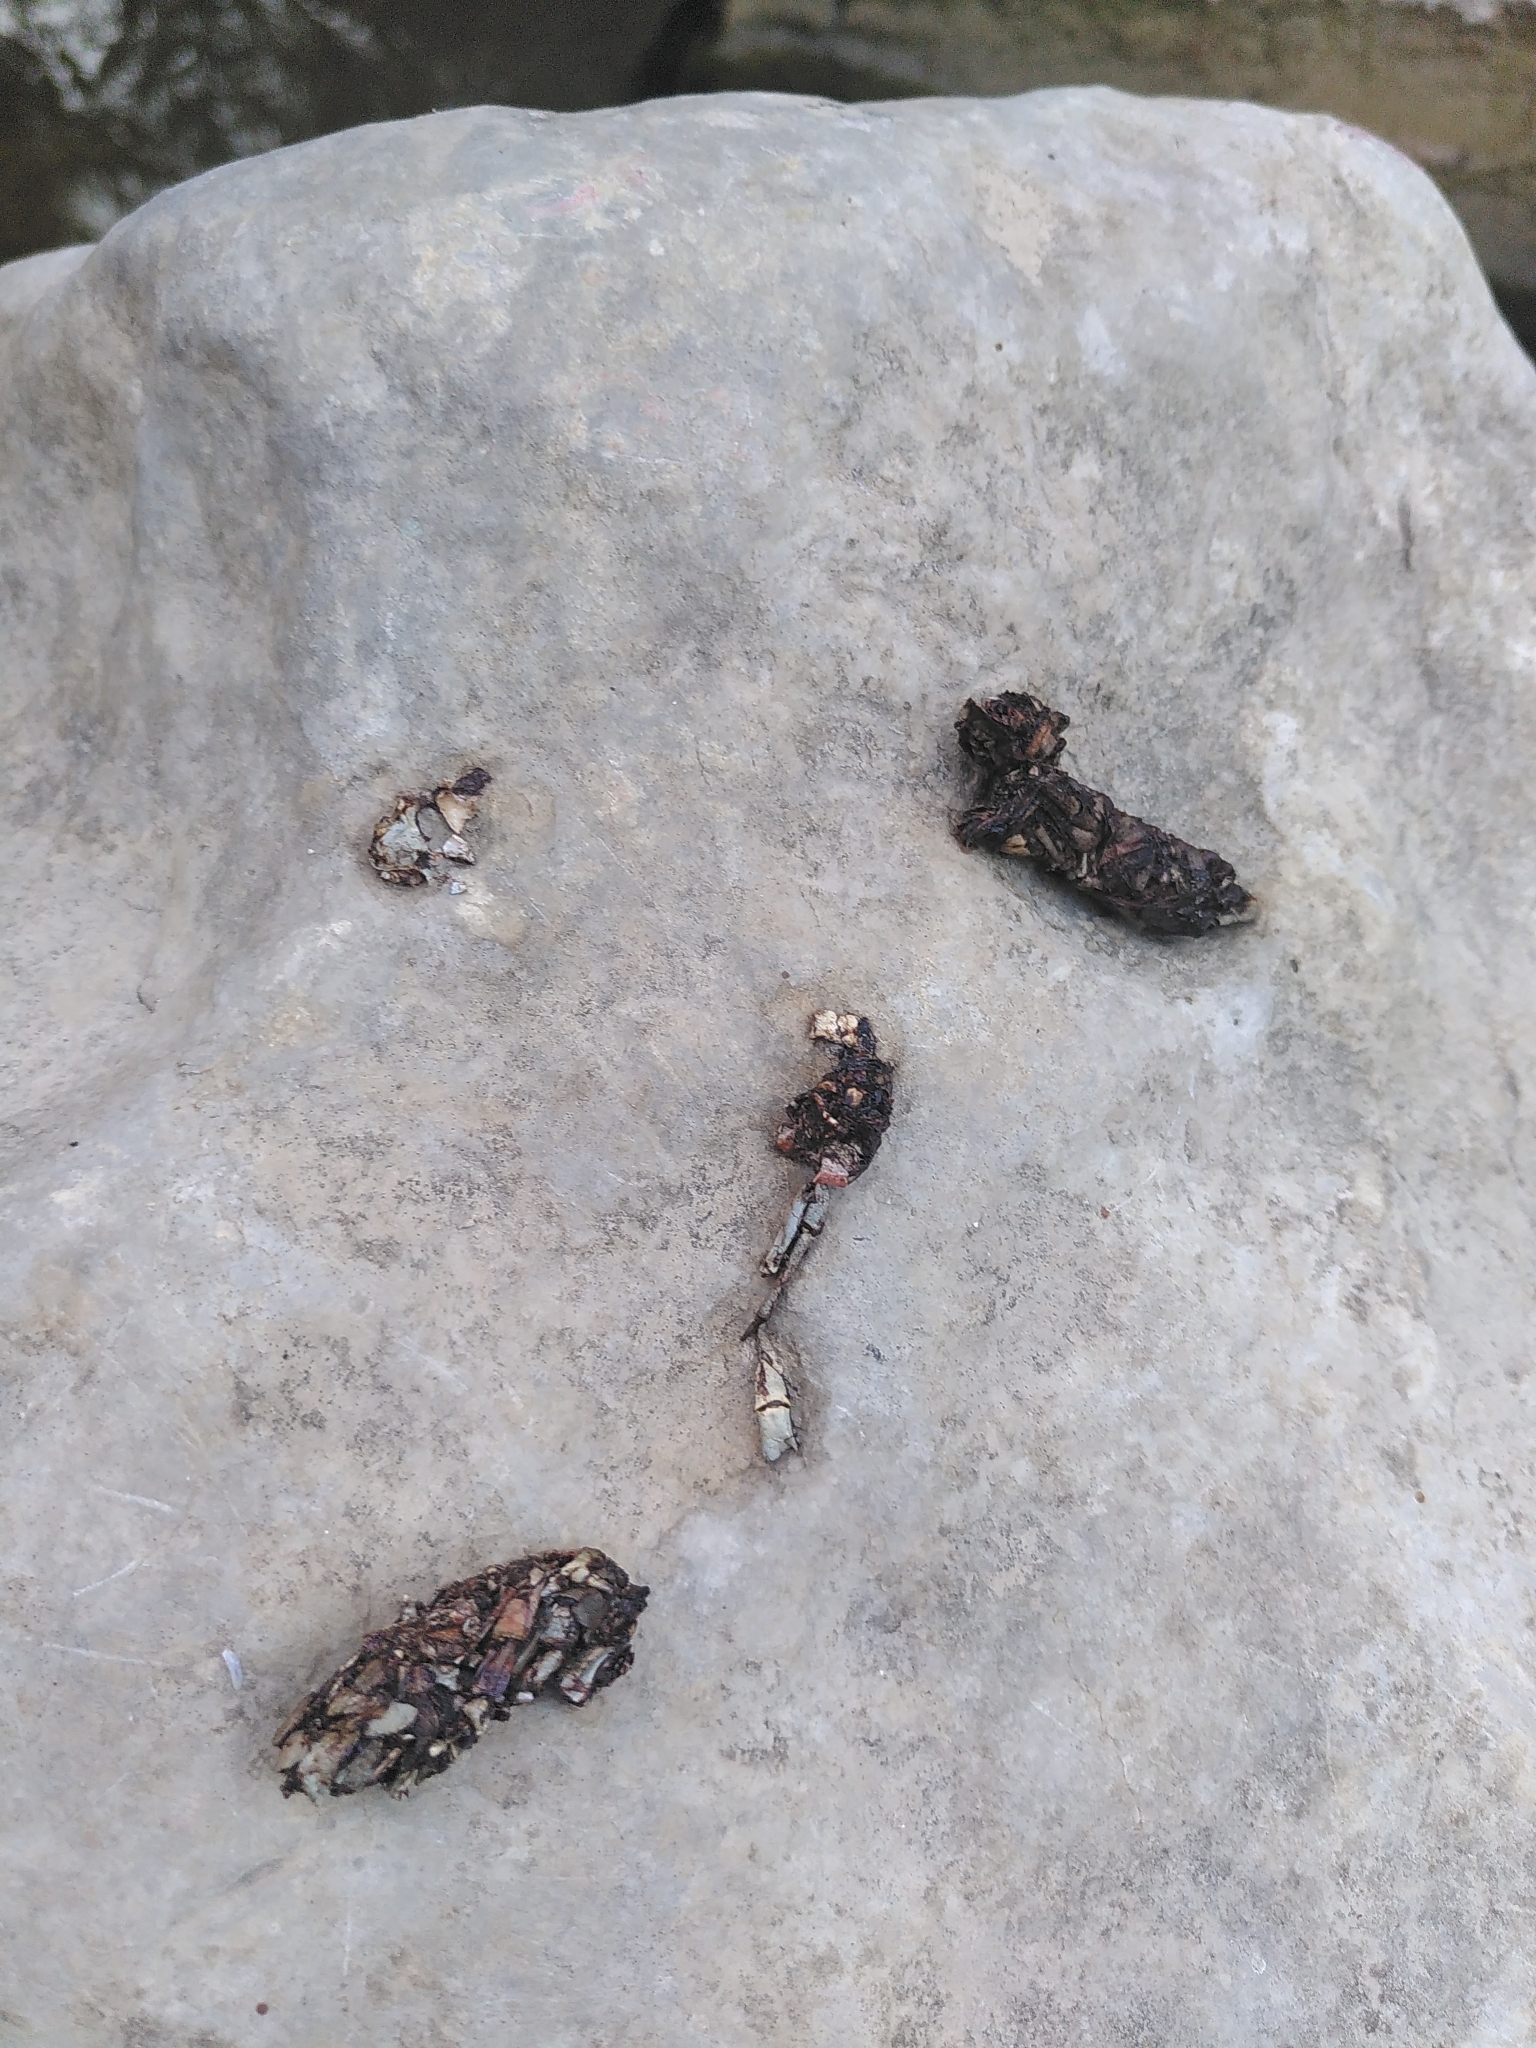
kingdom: Animalia
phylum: Chordata
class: Mammalia
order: Carnivora
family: Mustelidae
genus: Lutra
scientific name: Lutra lutra
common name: European otter
